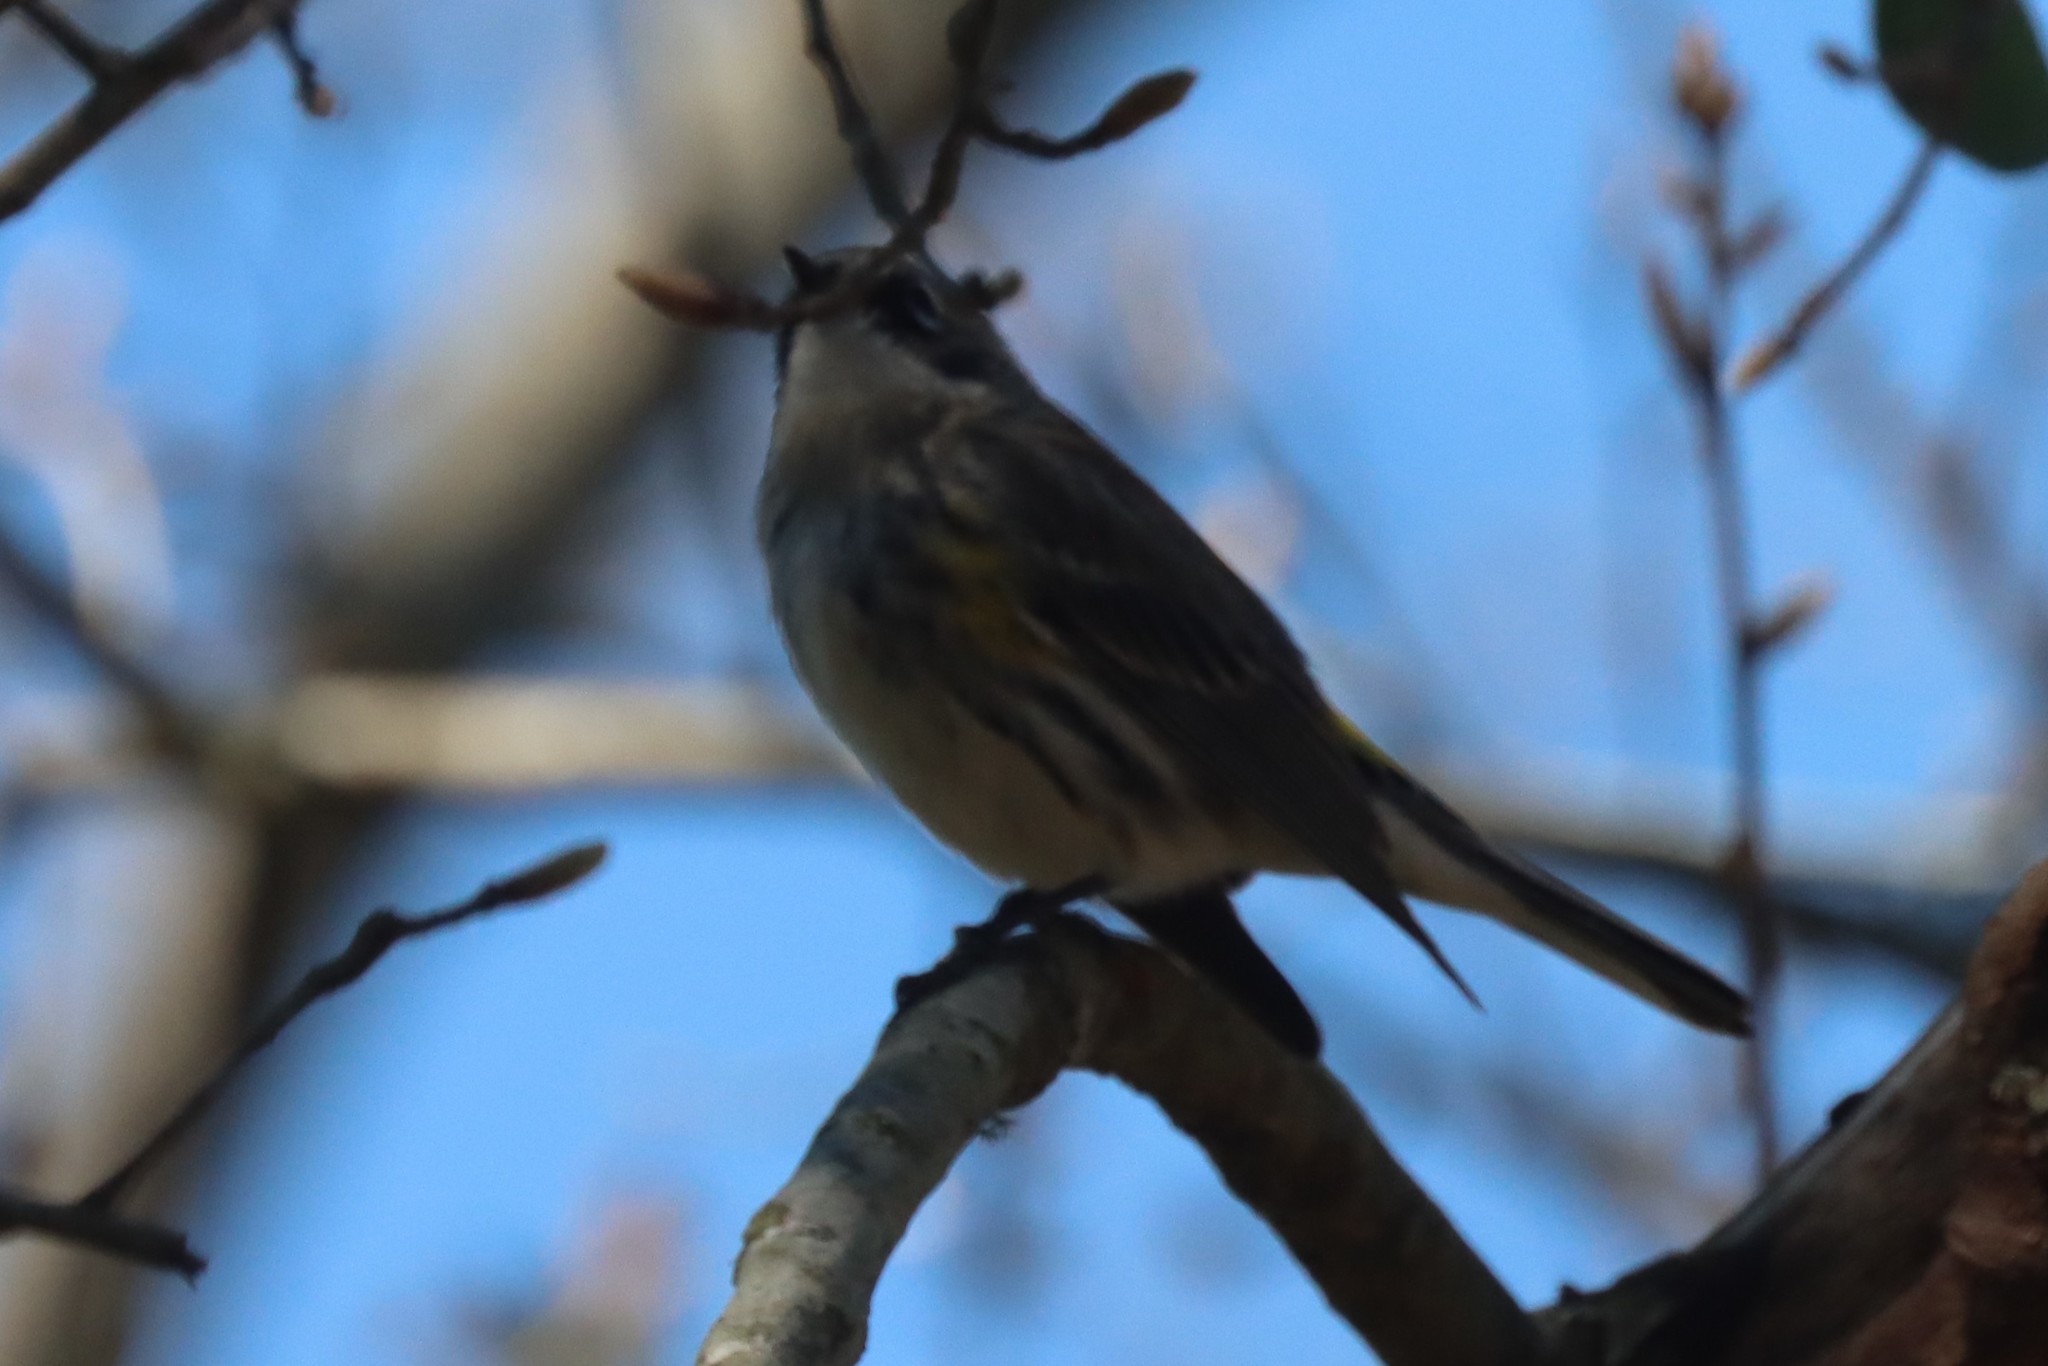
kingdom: Animalia
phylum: Chordata
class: Aves
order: Passeriformes
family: Parulidae
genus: Setophaga
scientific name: Setophaga coronata
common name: Myrtle warbler
